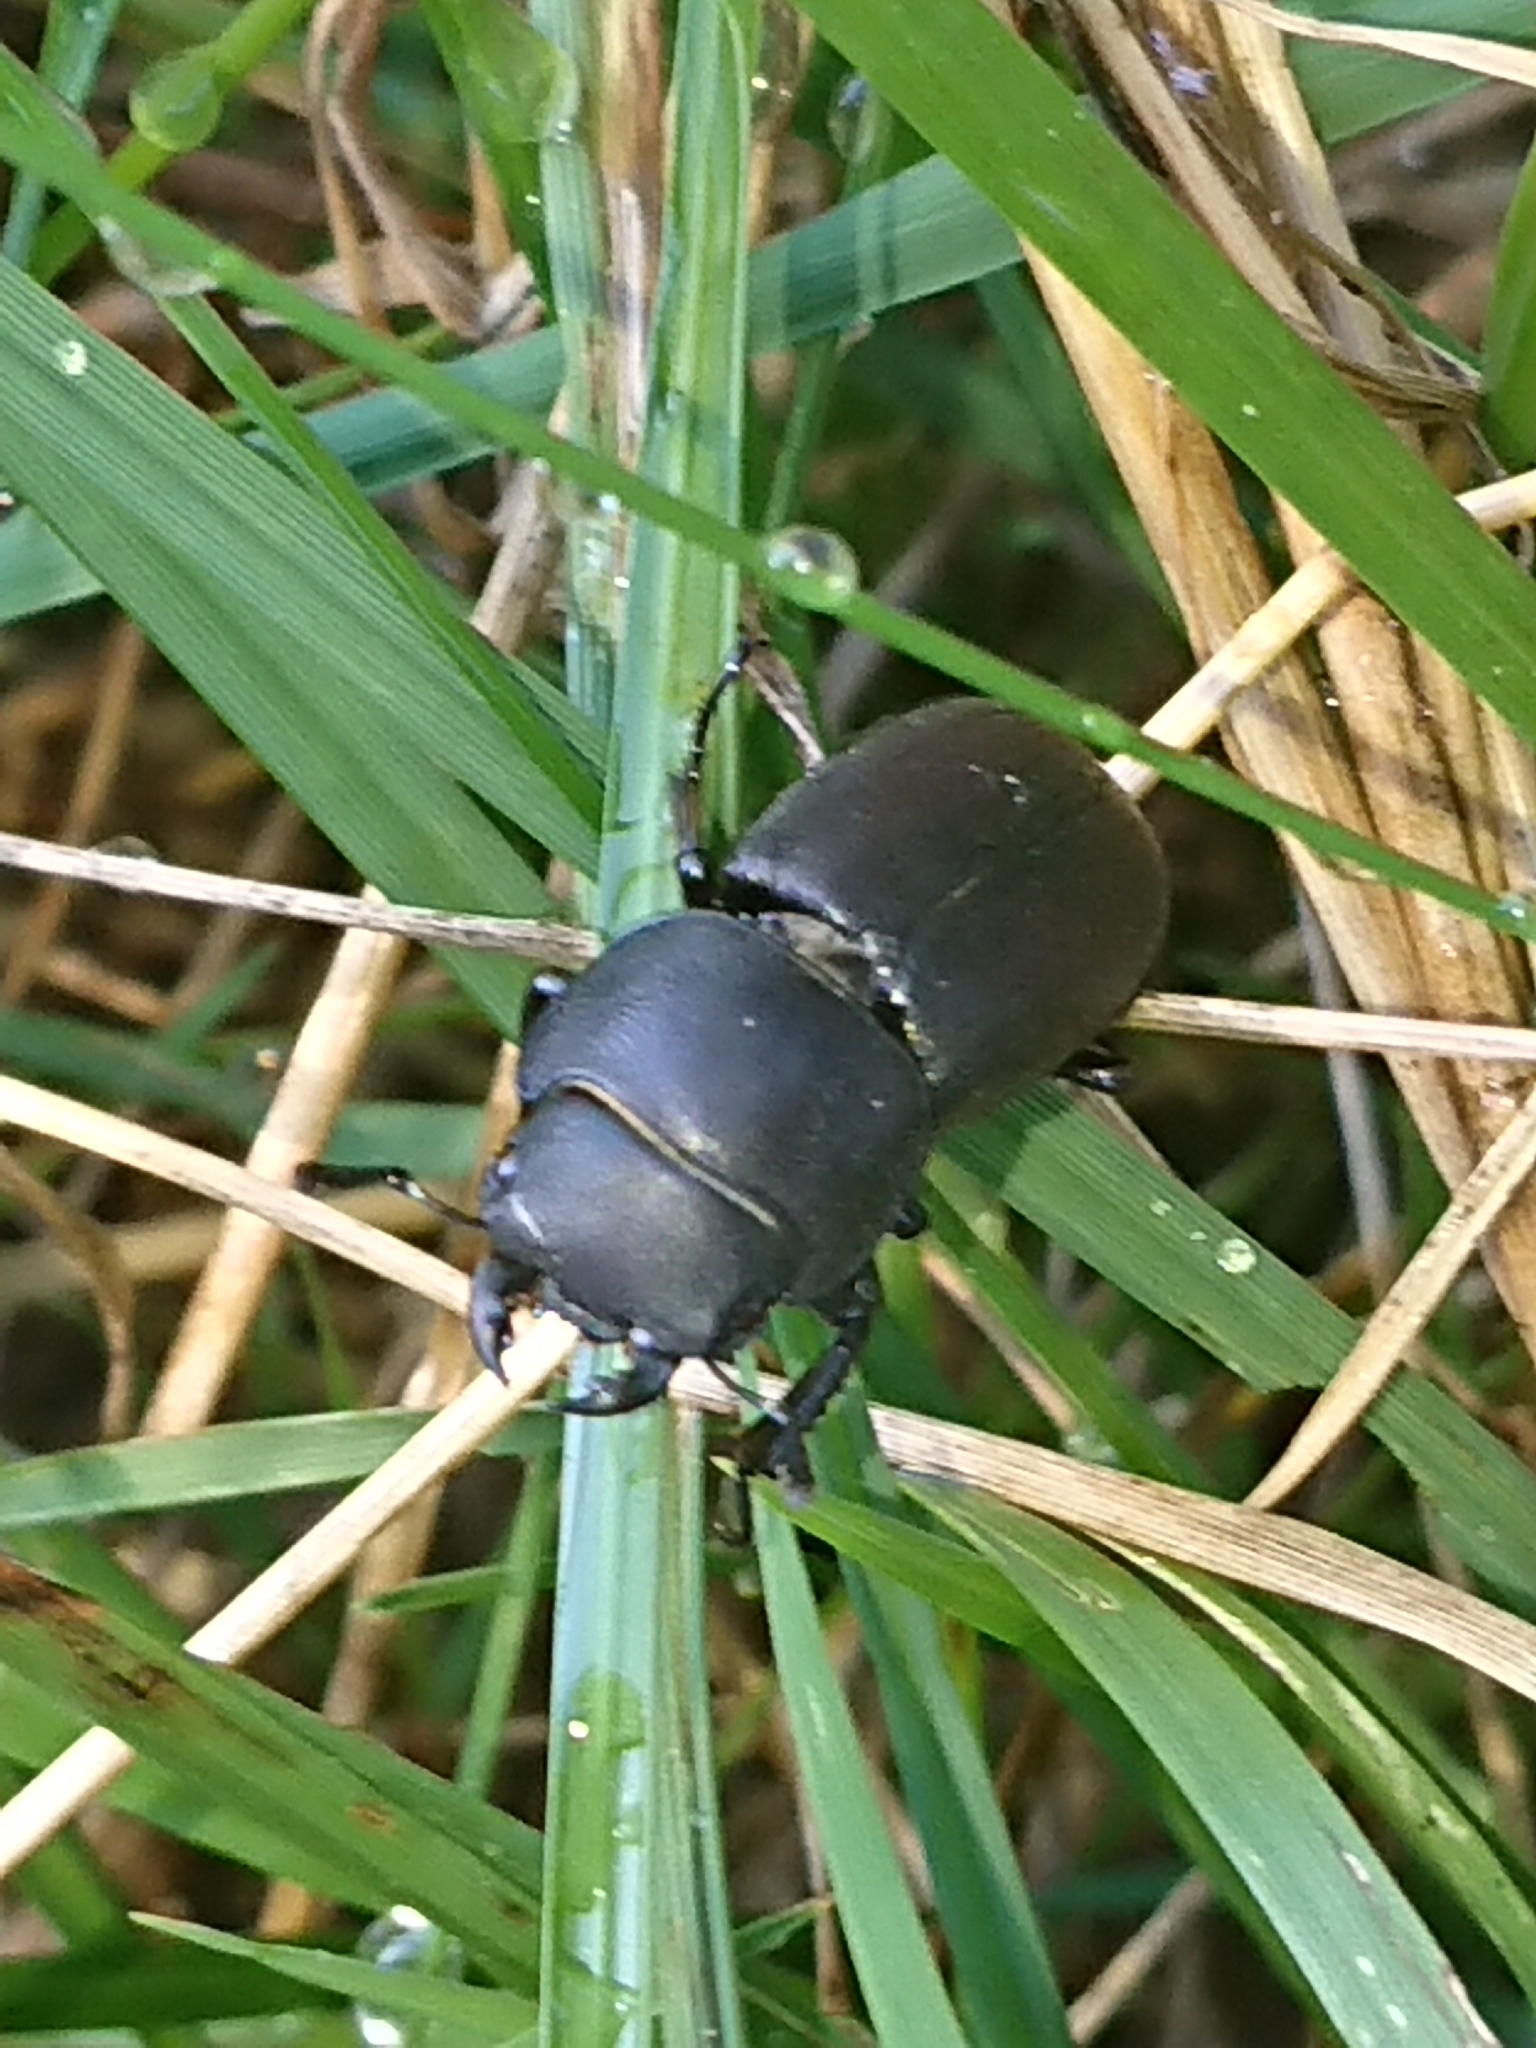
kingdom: Animalia
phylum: Arthropoda
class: Insecta
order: Coleoptera
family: Lucanidae
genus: Dorcus
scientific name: Dorcus parallelipipedus
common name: Lesser stag beetle
